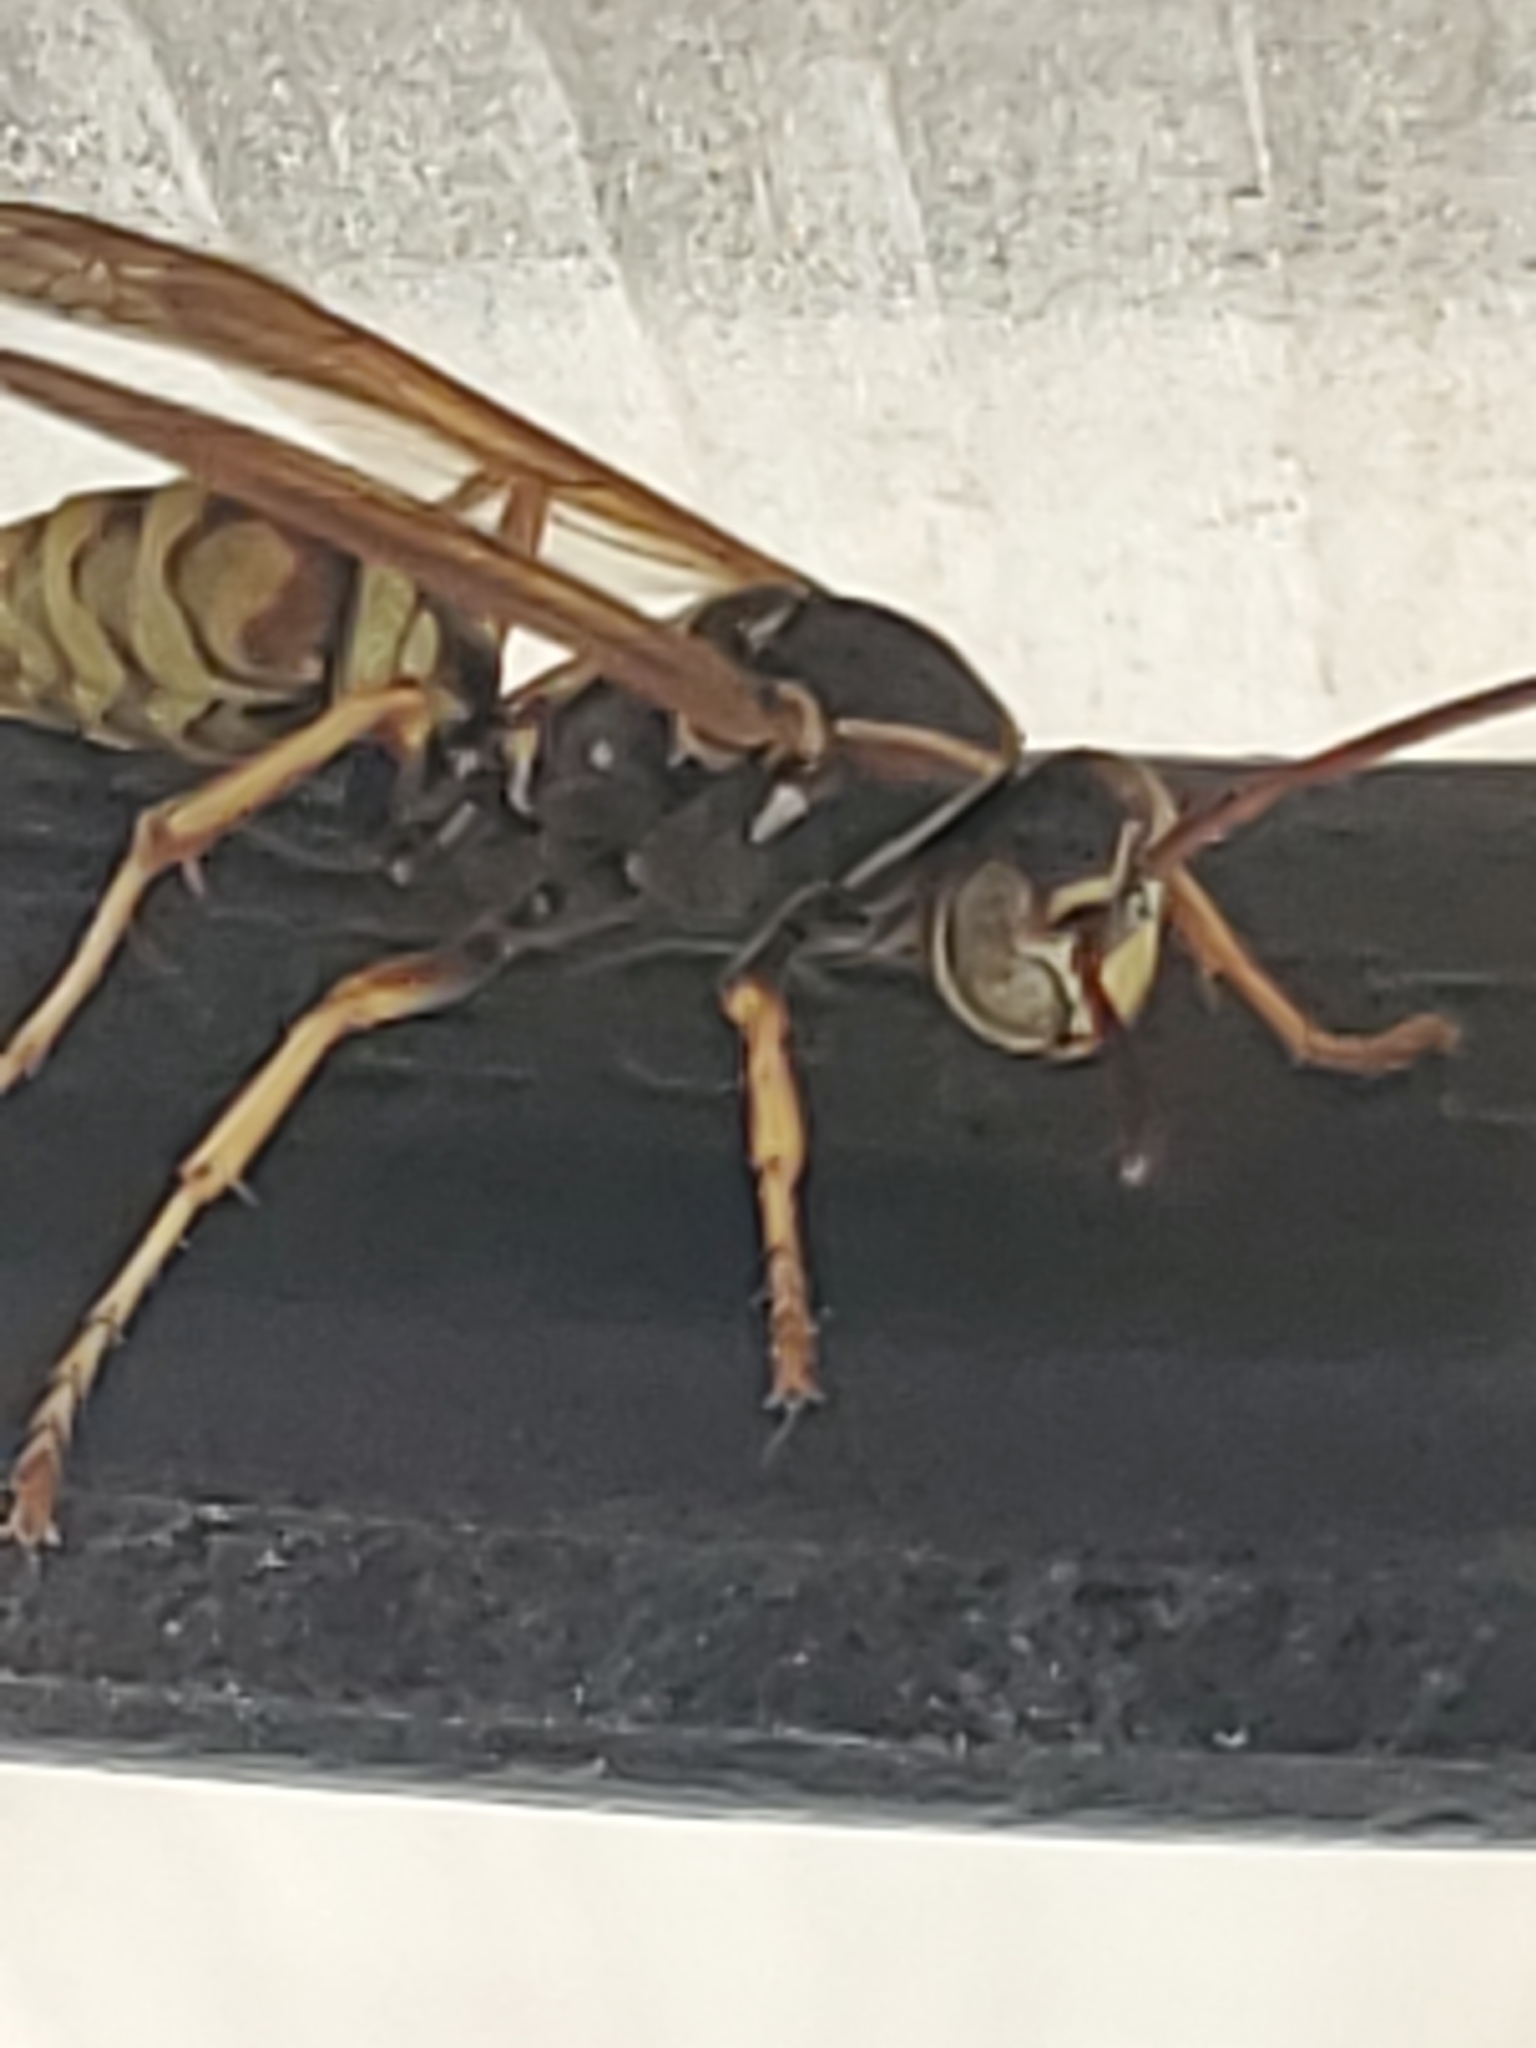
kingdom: Animalia
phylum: Arthropoda
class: Insecta
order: Hymenoptera
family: Eumenidae
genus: Polistes
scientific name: Polistes aurifer
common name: Paper wasp
